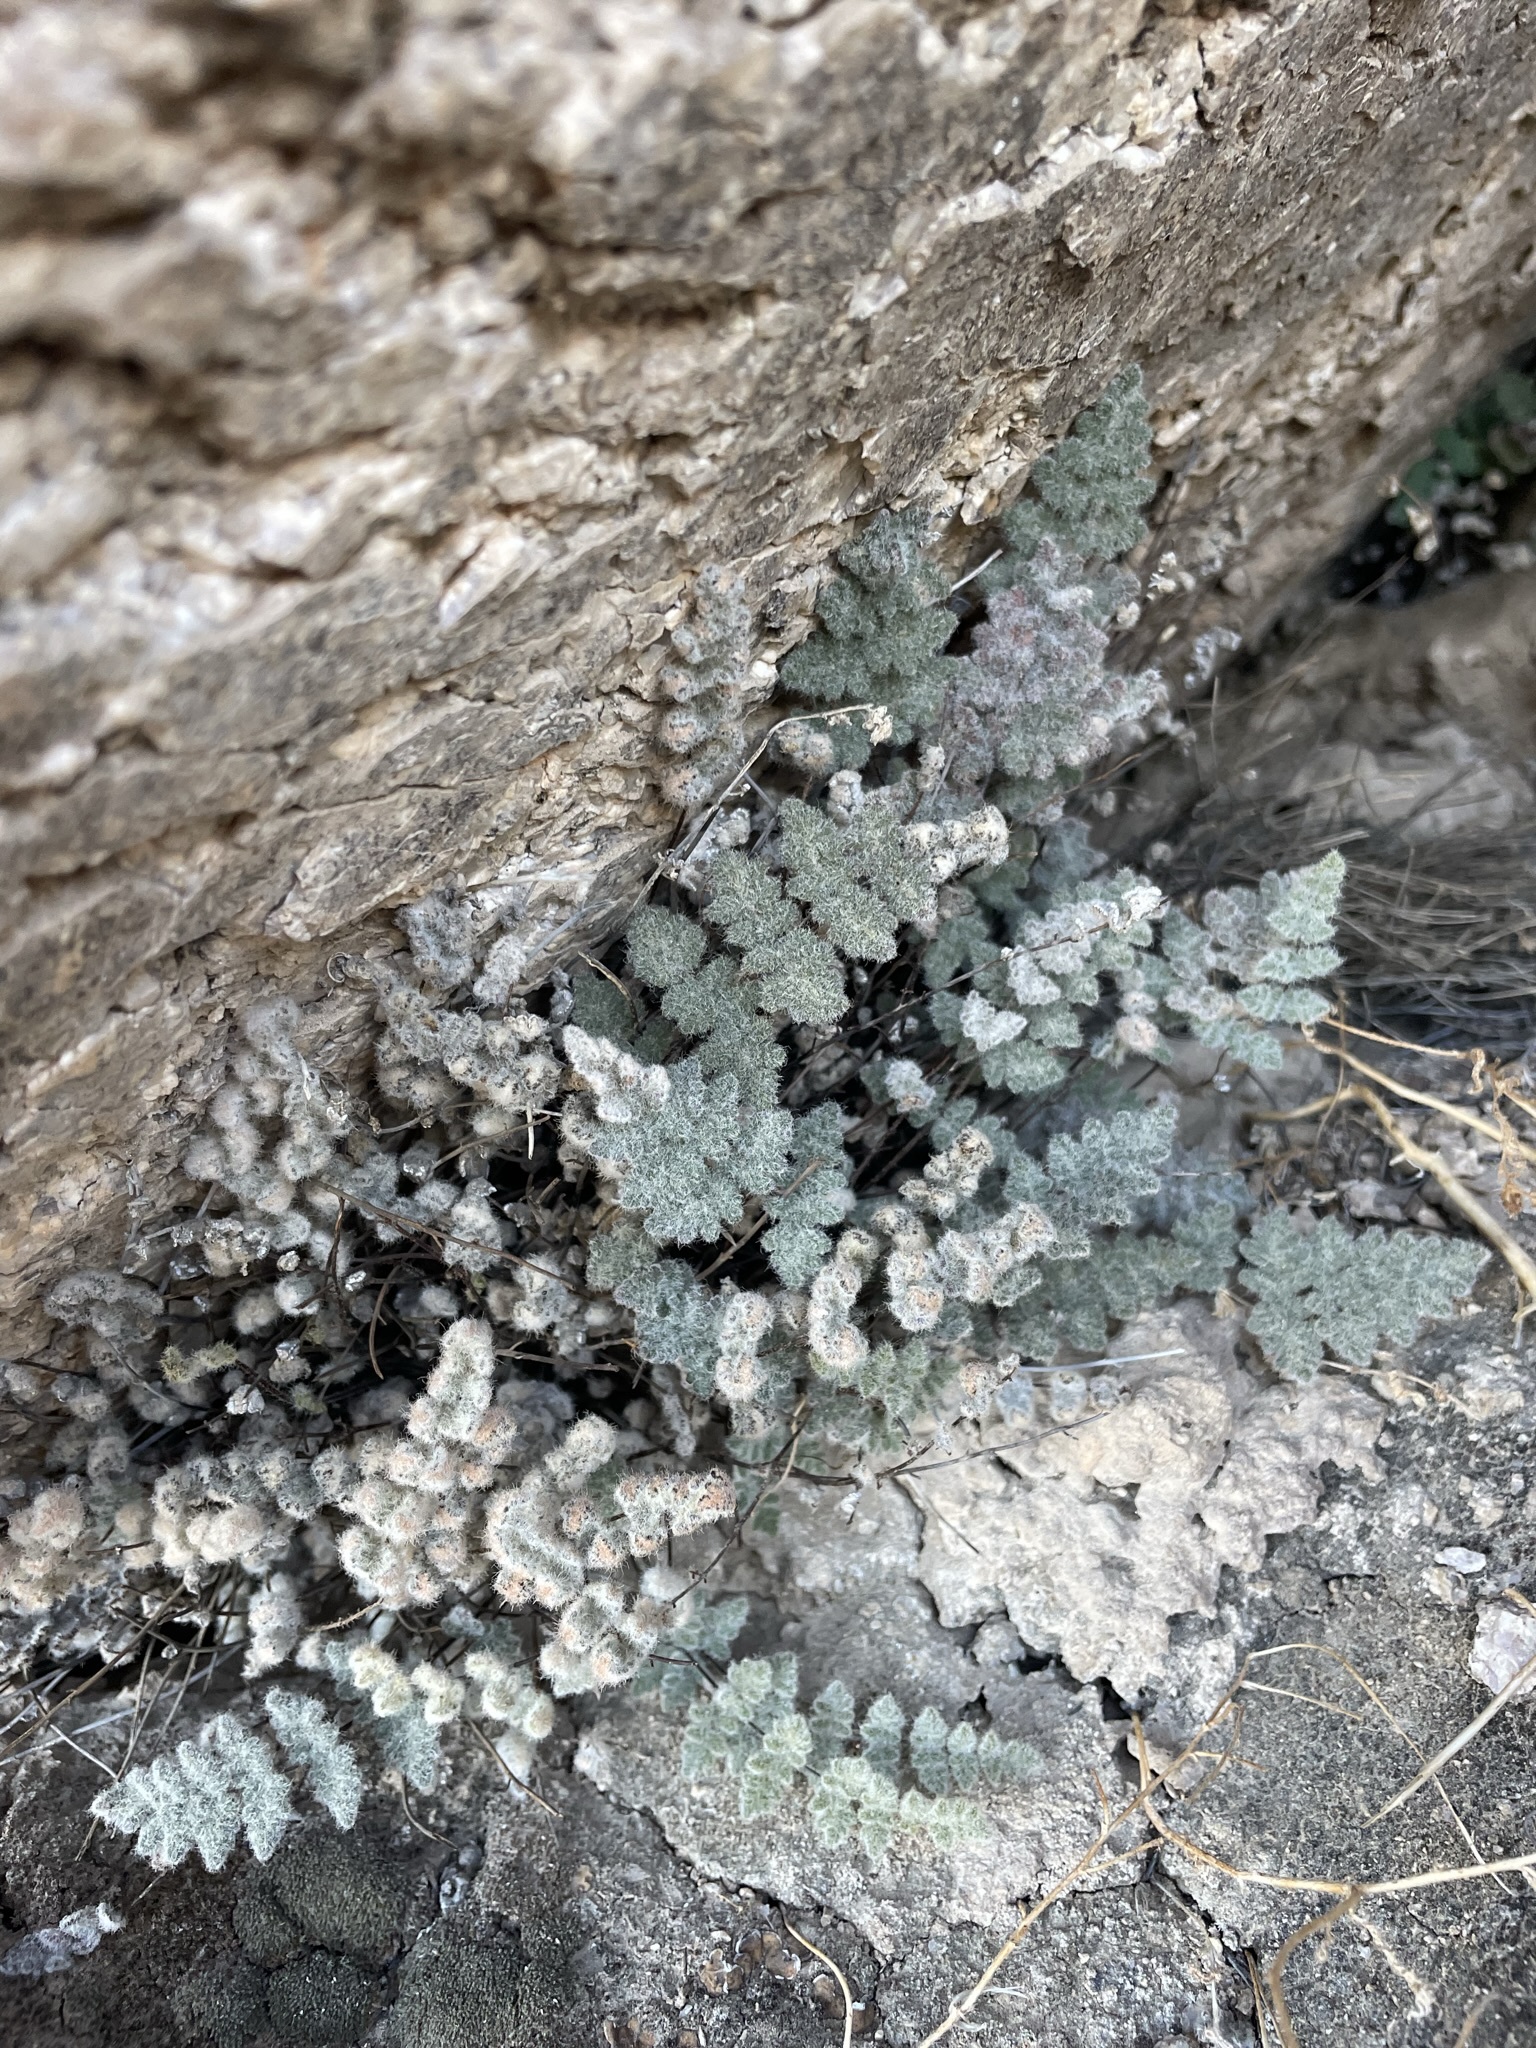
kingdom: Plantae
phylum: Tracheophyta
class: Polypodiopsida
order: Polypodiales
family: Pteridaceae
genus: Myriopteris
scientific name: Myriopteris parryi
